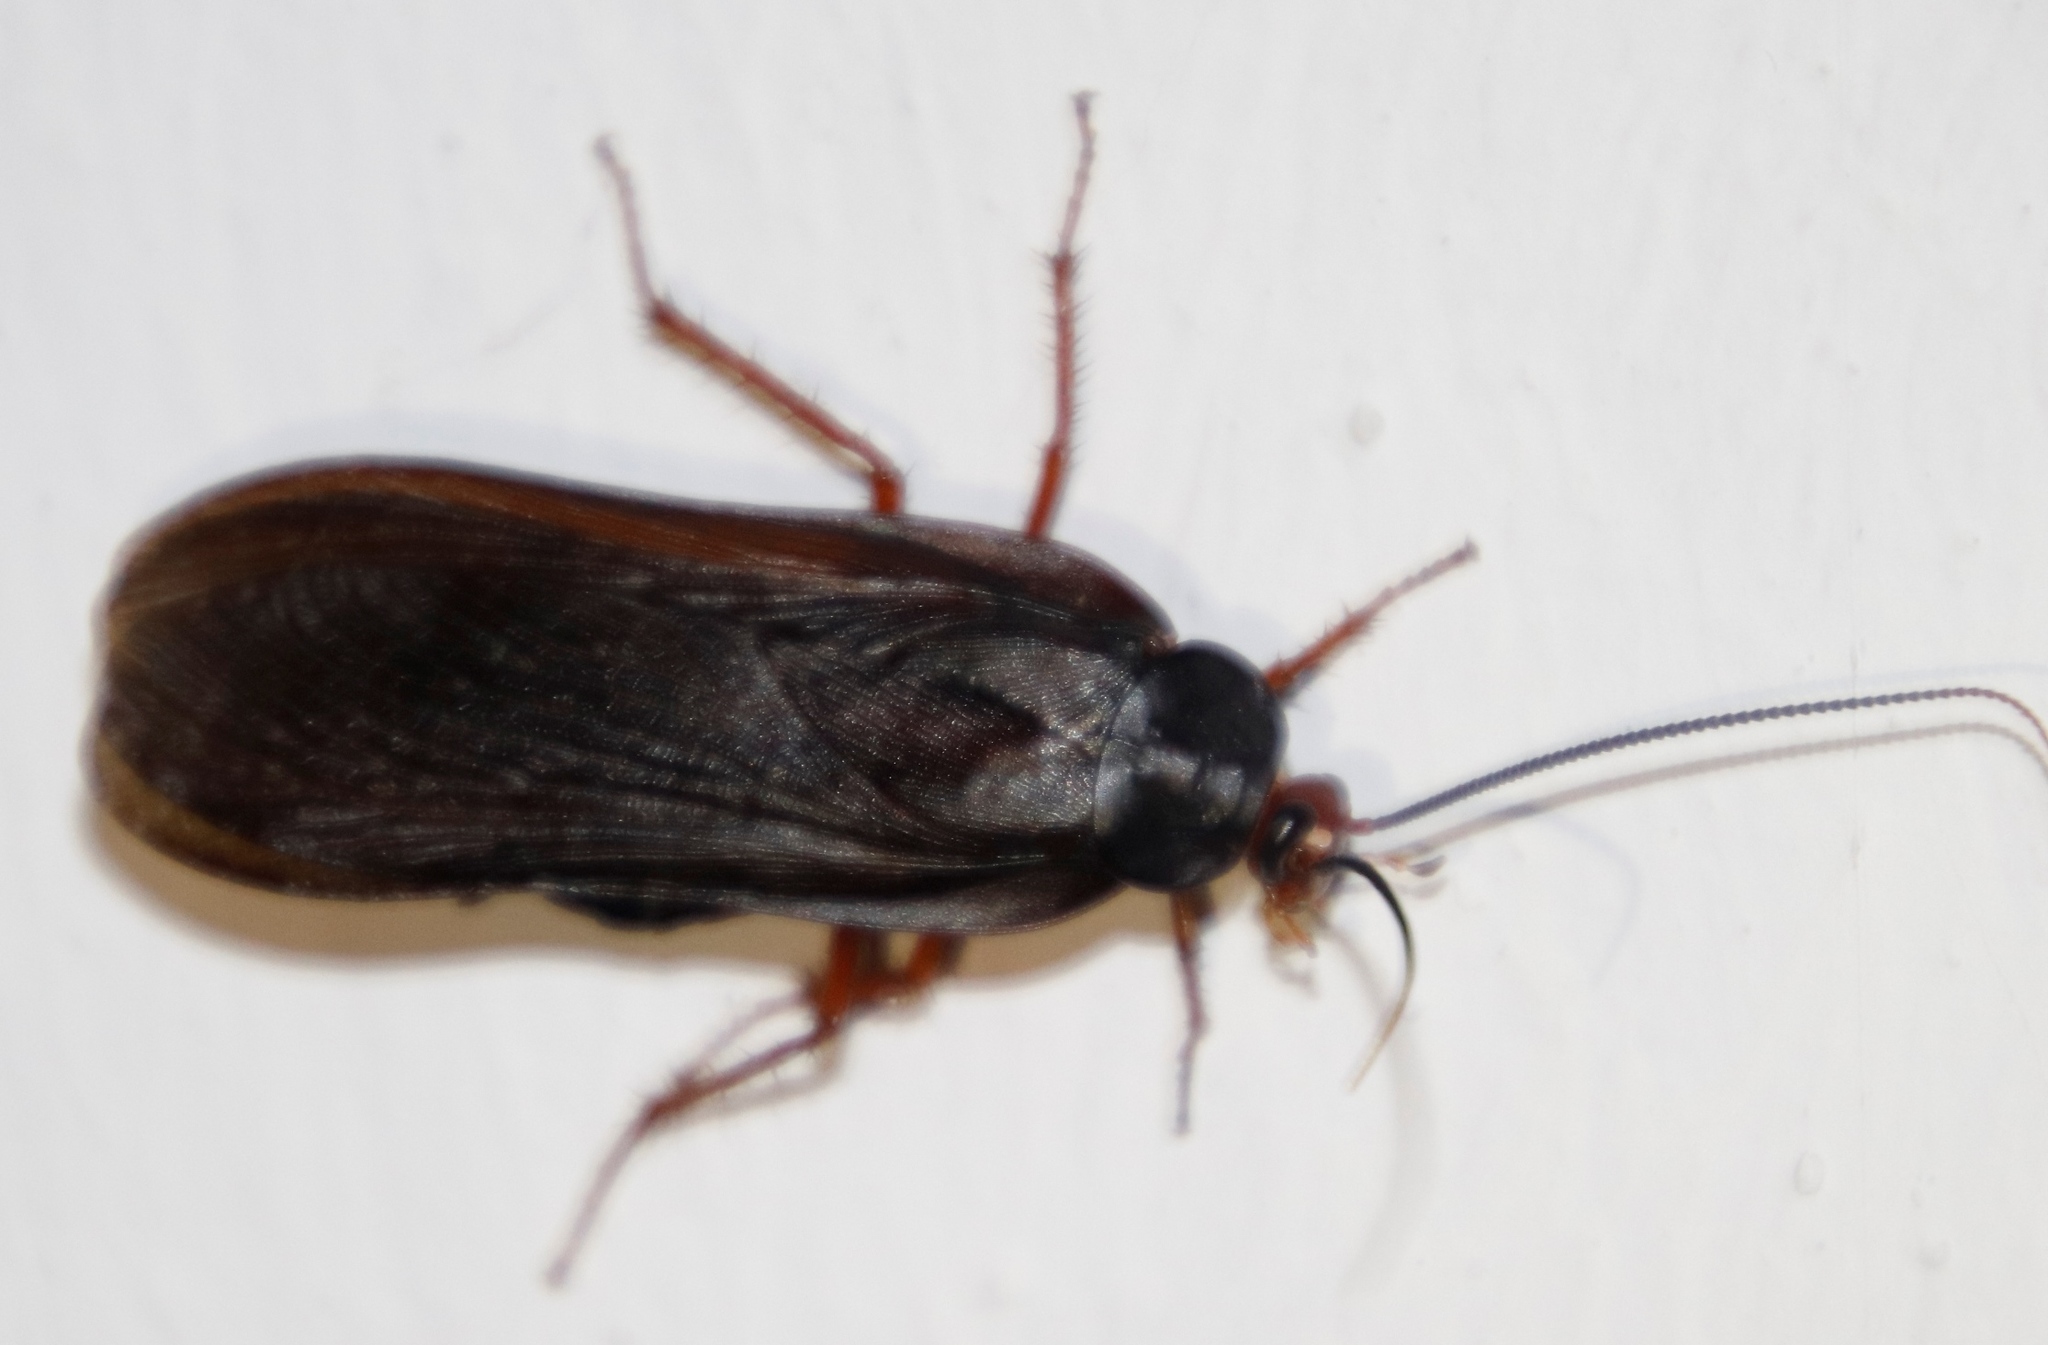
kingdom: Animalia
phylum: Arthropoda
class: Insecta
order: Blattodea
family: Blattidae
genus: Deropeltis
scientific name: Deropeltis erythrocephala
